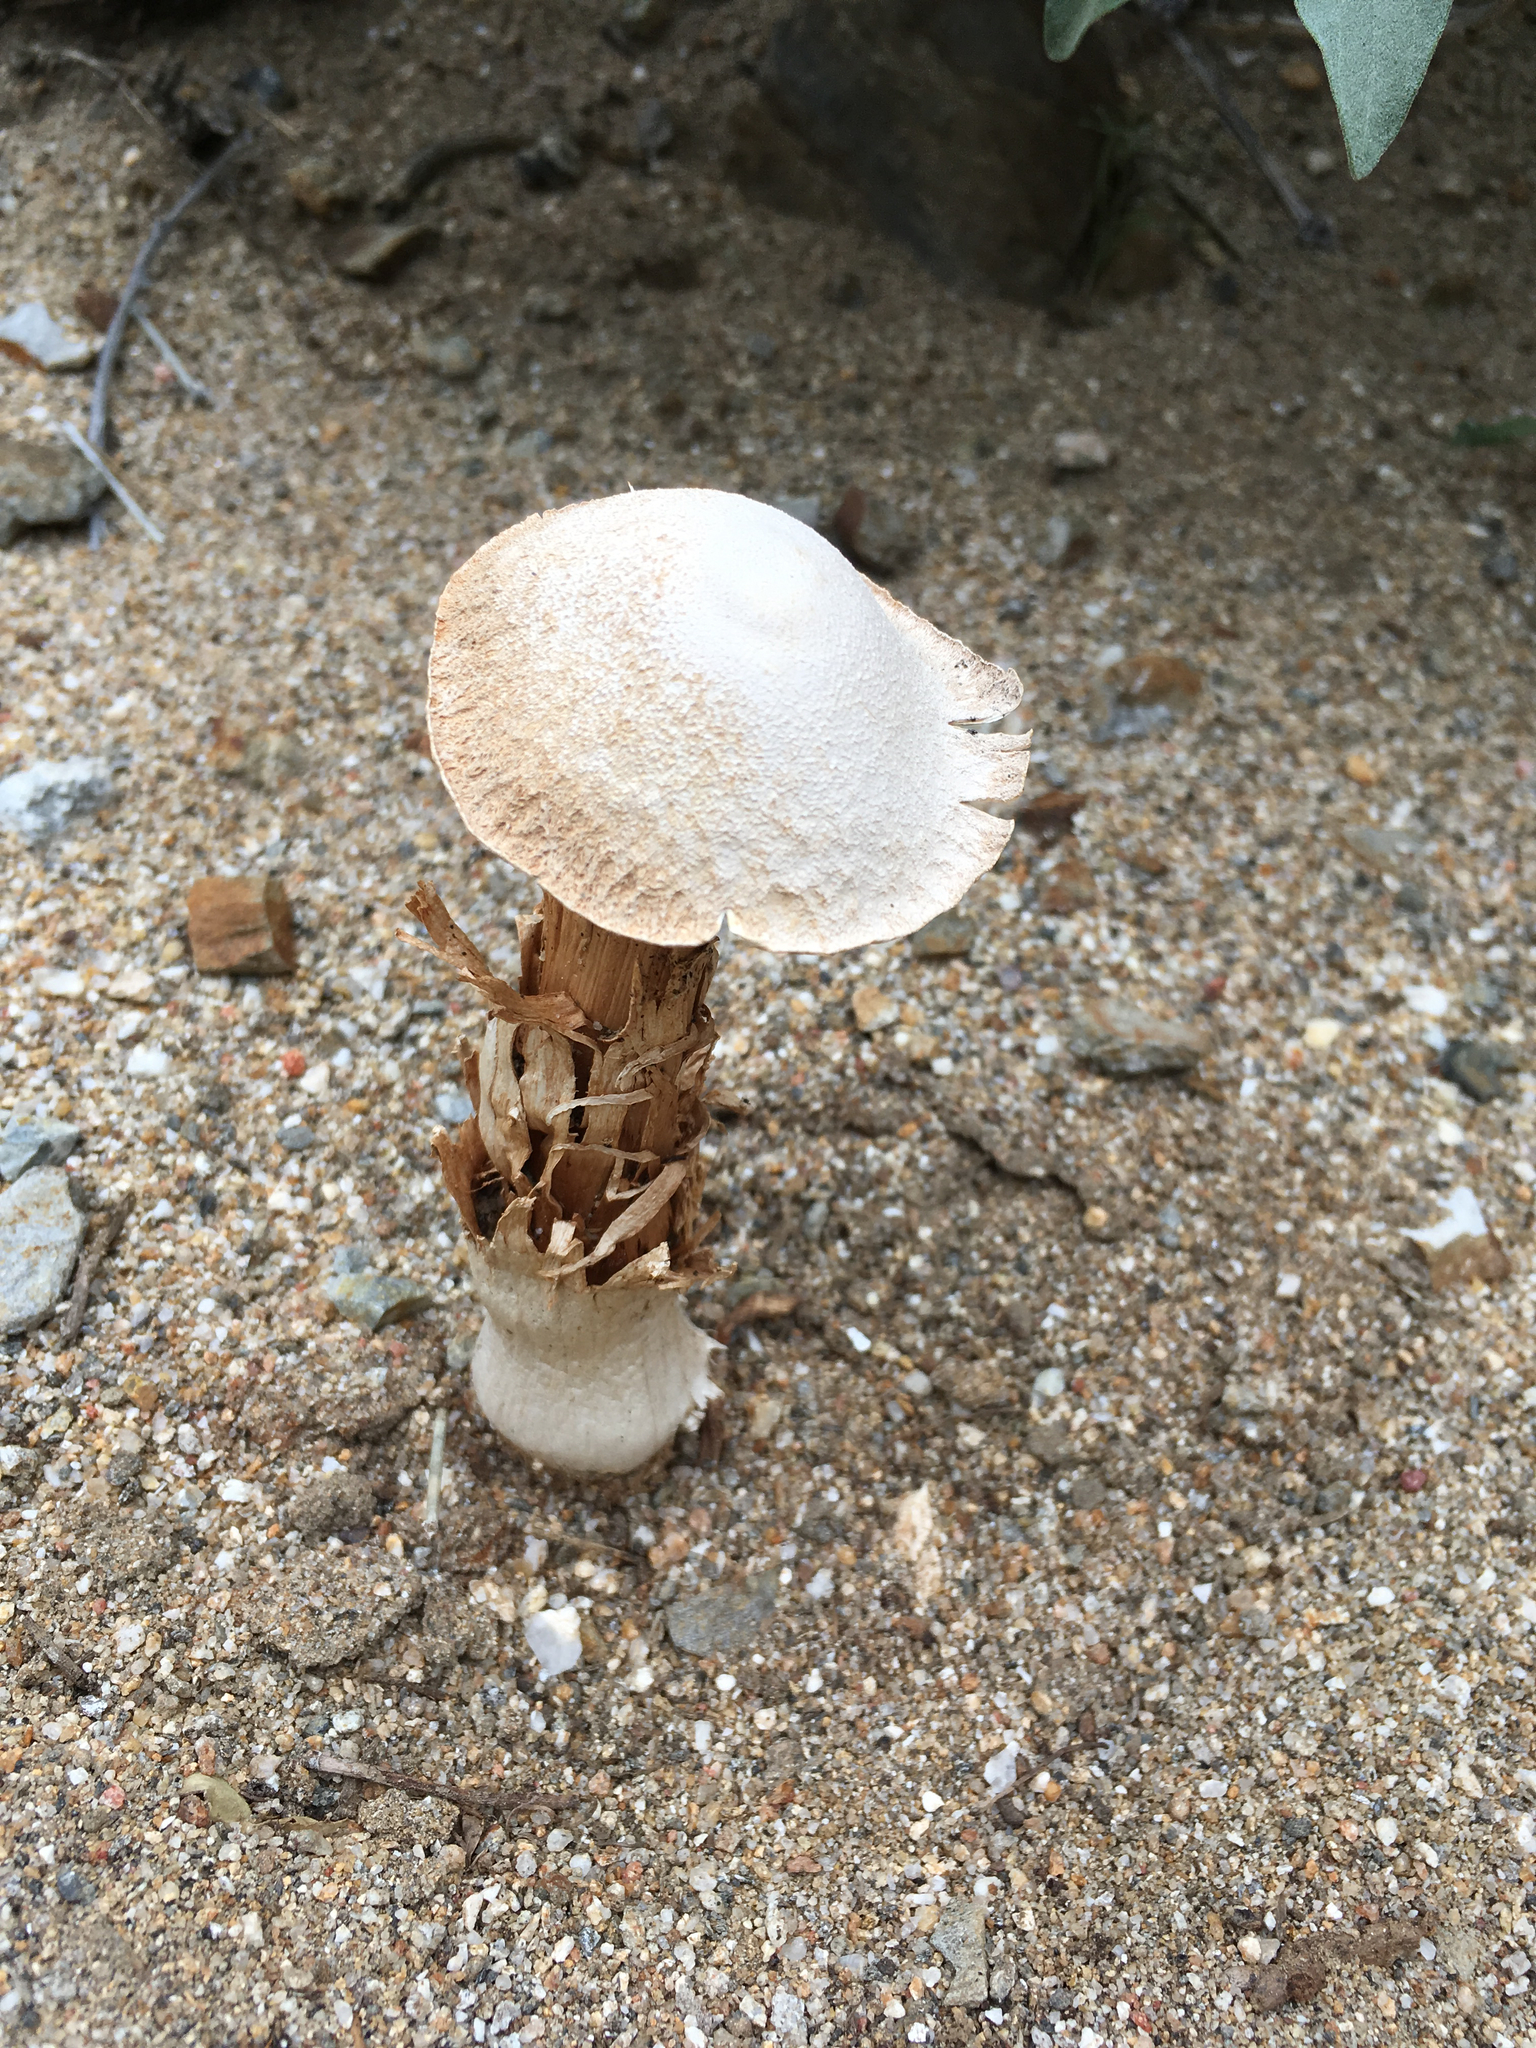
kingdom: Fungi
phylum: Basidiomycota
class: Agaricomycetes
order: Agaricales
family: Agaricaceae
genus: Battarrea
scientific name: Battarrea phalloides
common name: Sandy stiltball
